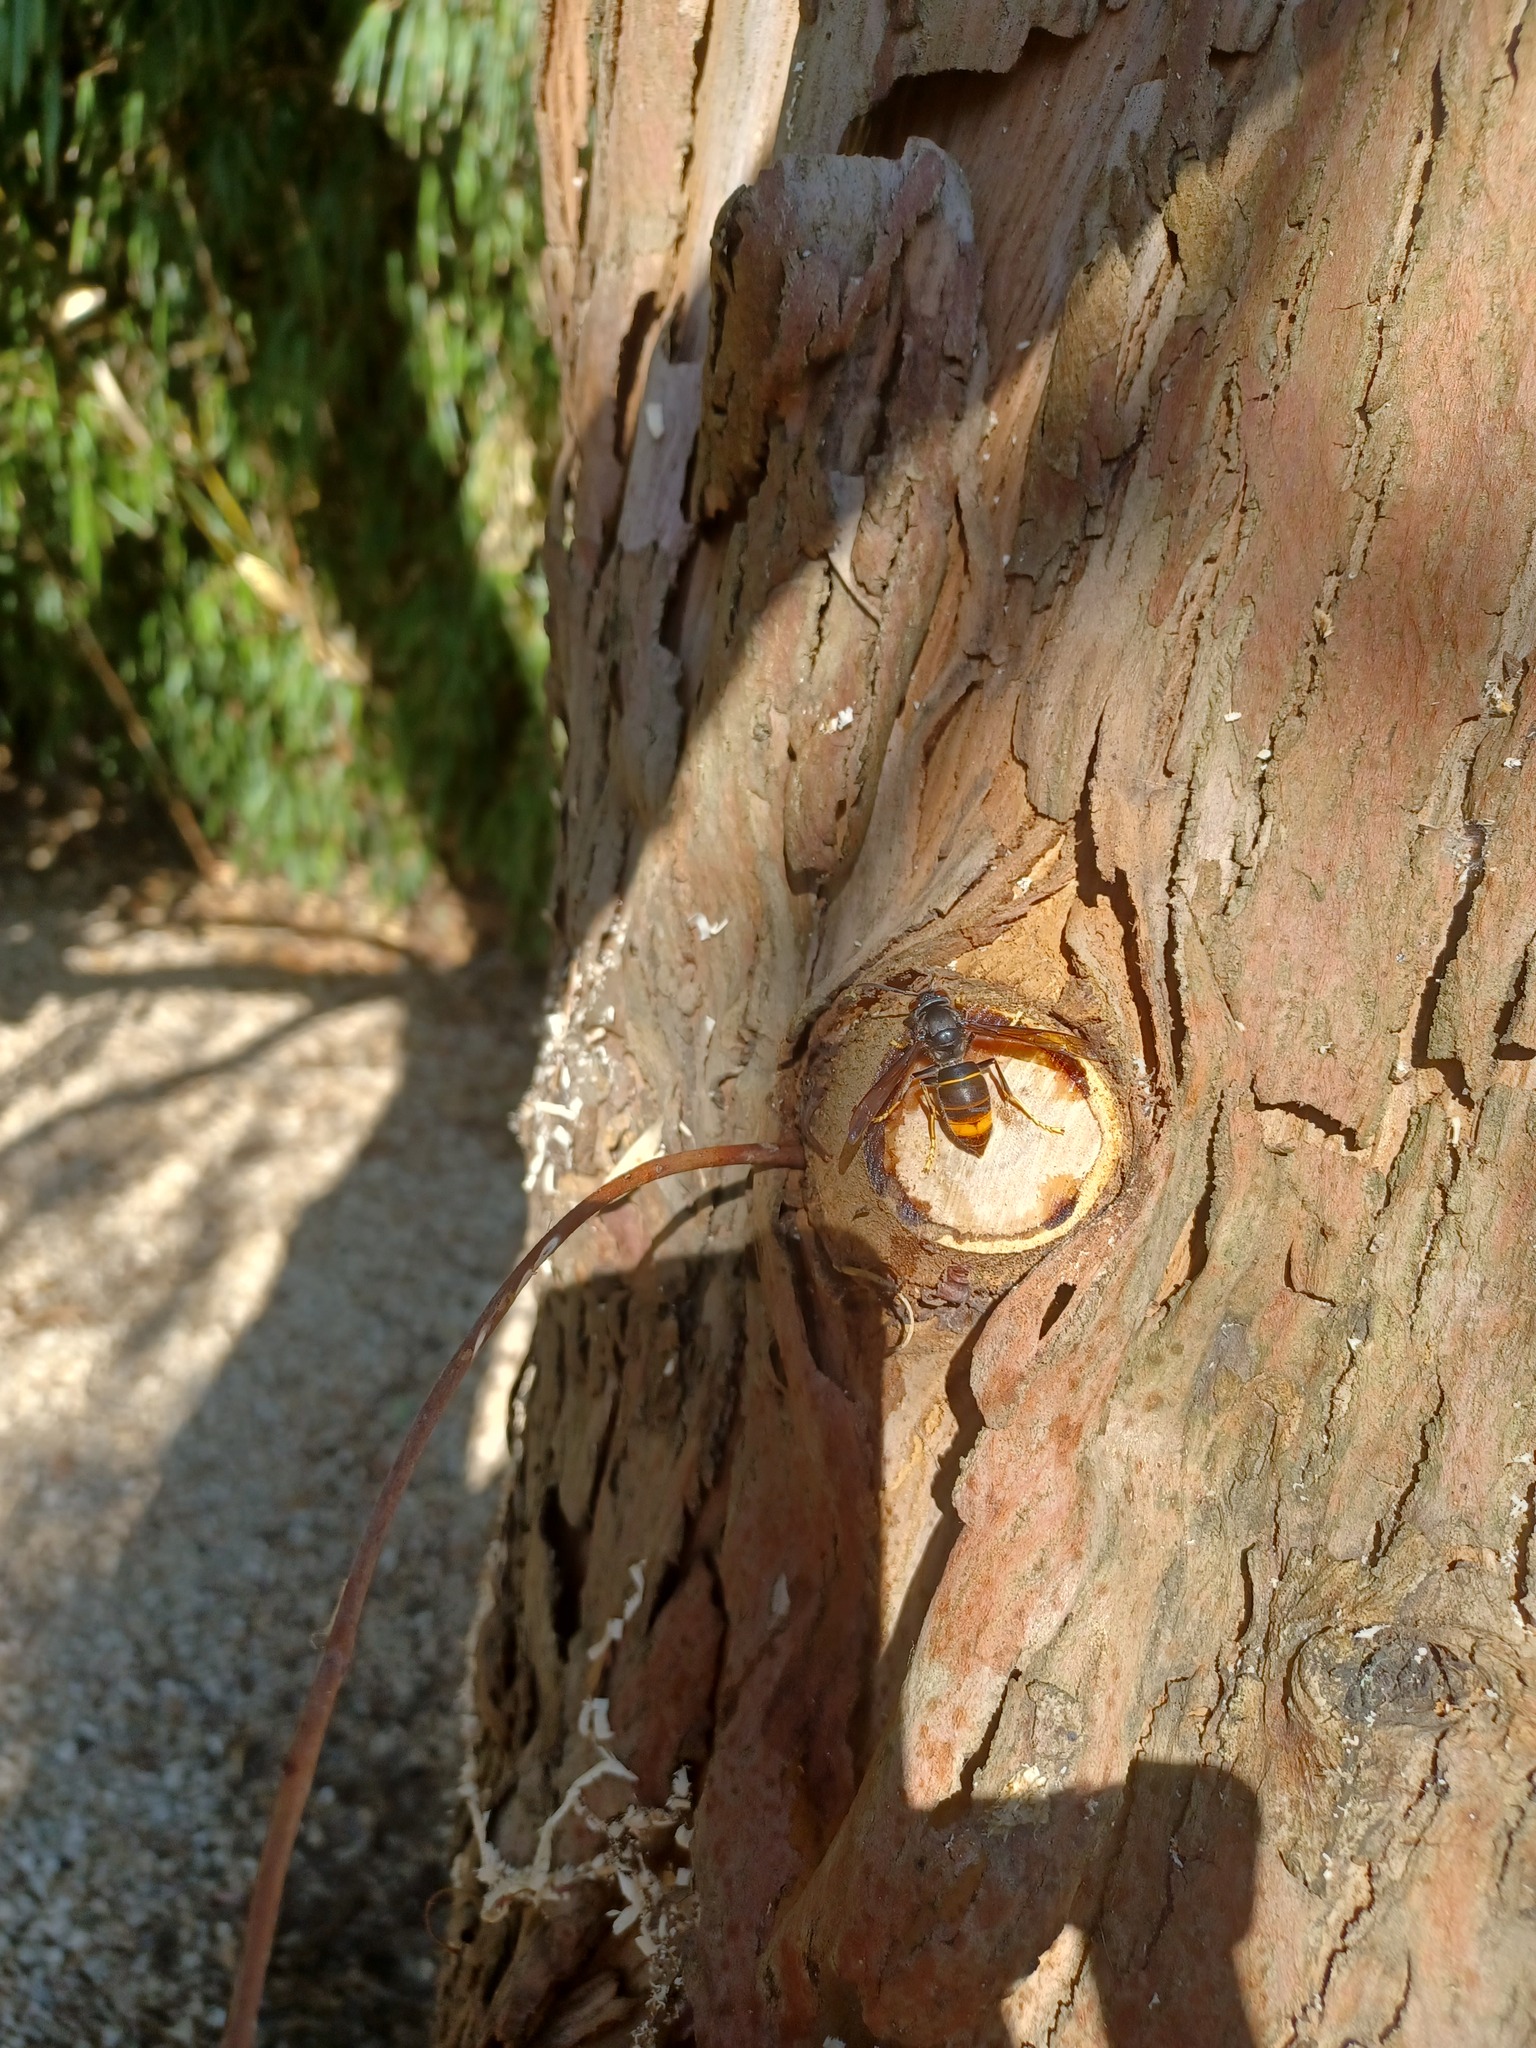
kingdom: Animalia
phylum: Arthropoda
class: Insecta
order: Hymenoptera
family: Vespidae
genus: Vespa
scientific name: Vespa velutina
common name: Asian hornet
